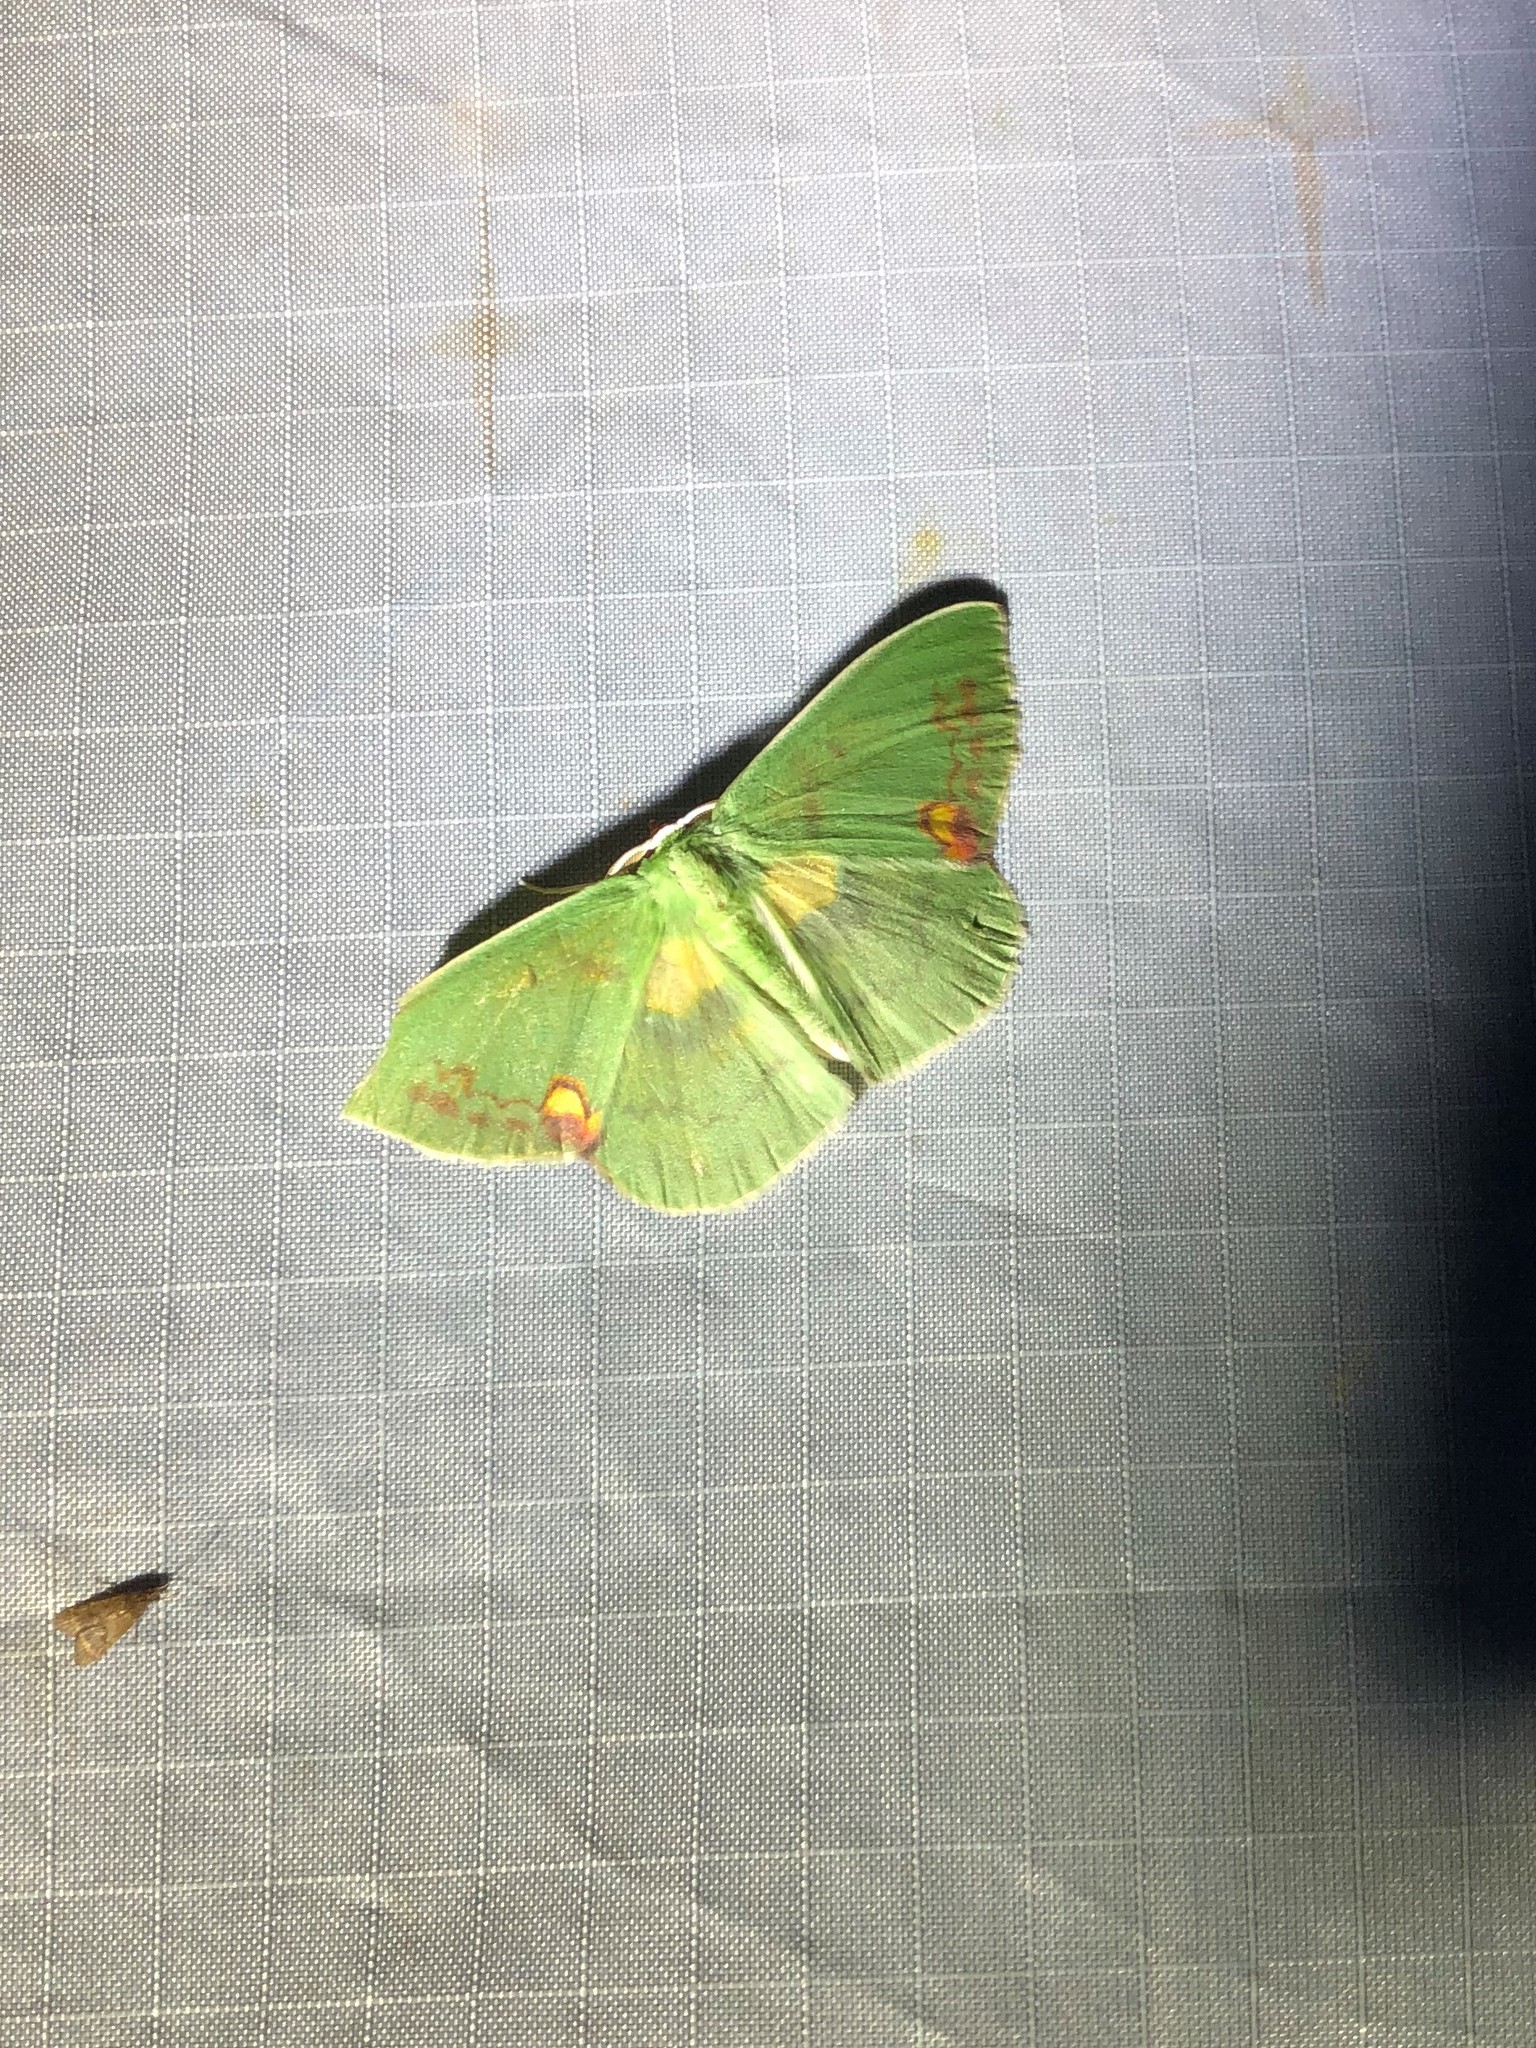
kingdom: Animalia
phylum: Arthropoda
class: Insecta
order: Lepidoptera
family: Geometridae
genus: Rhodochlora
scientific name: Rhodochlora brunneipalpis
